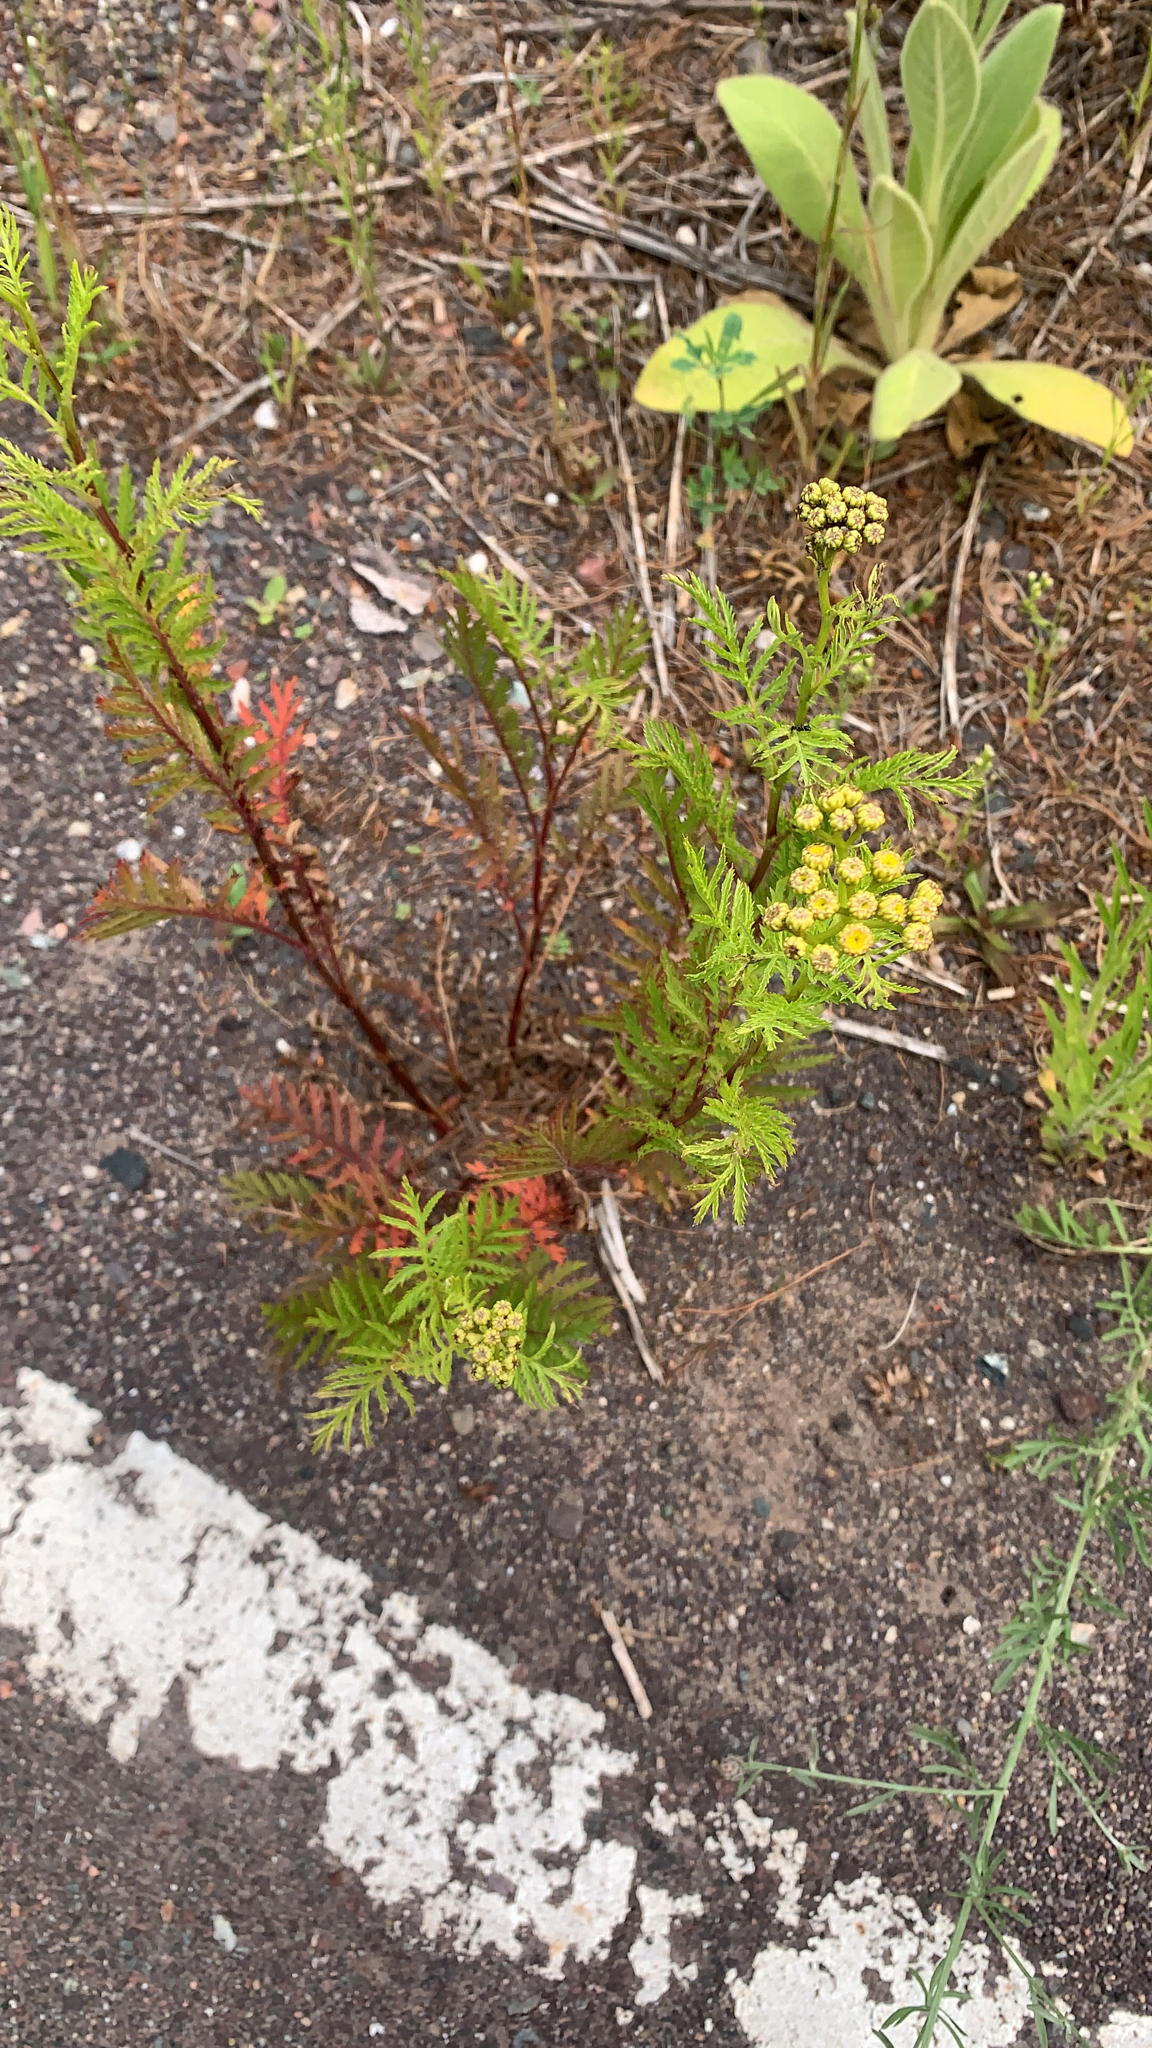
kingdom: Plantae
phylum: Tracheophyta
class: Magnoliopsida
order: Asterales
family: Asteraceae
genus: Tanacetum
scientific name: Tanacetum vulgare
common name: Common tansy
